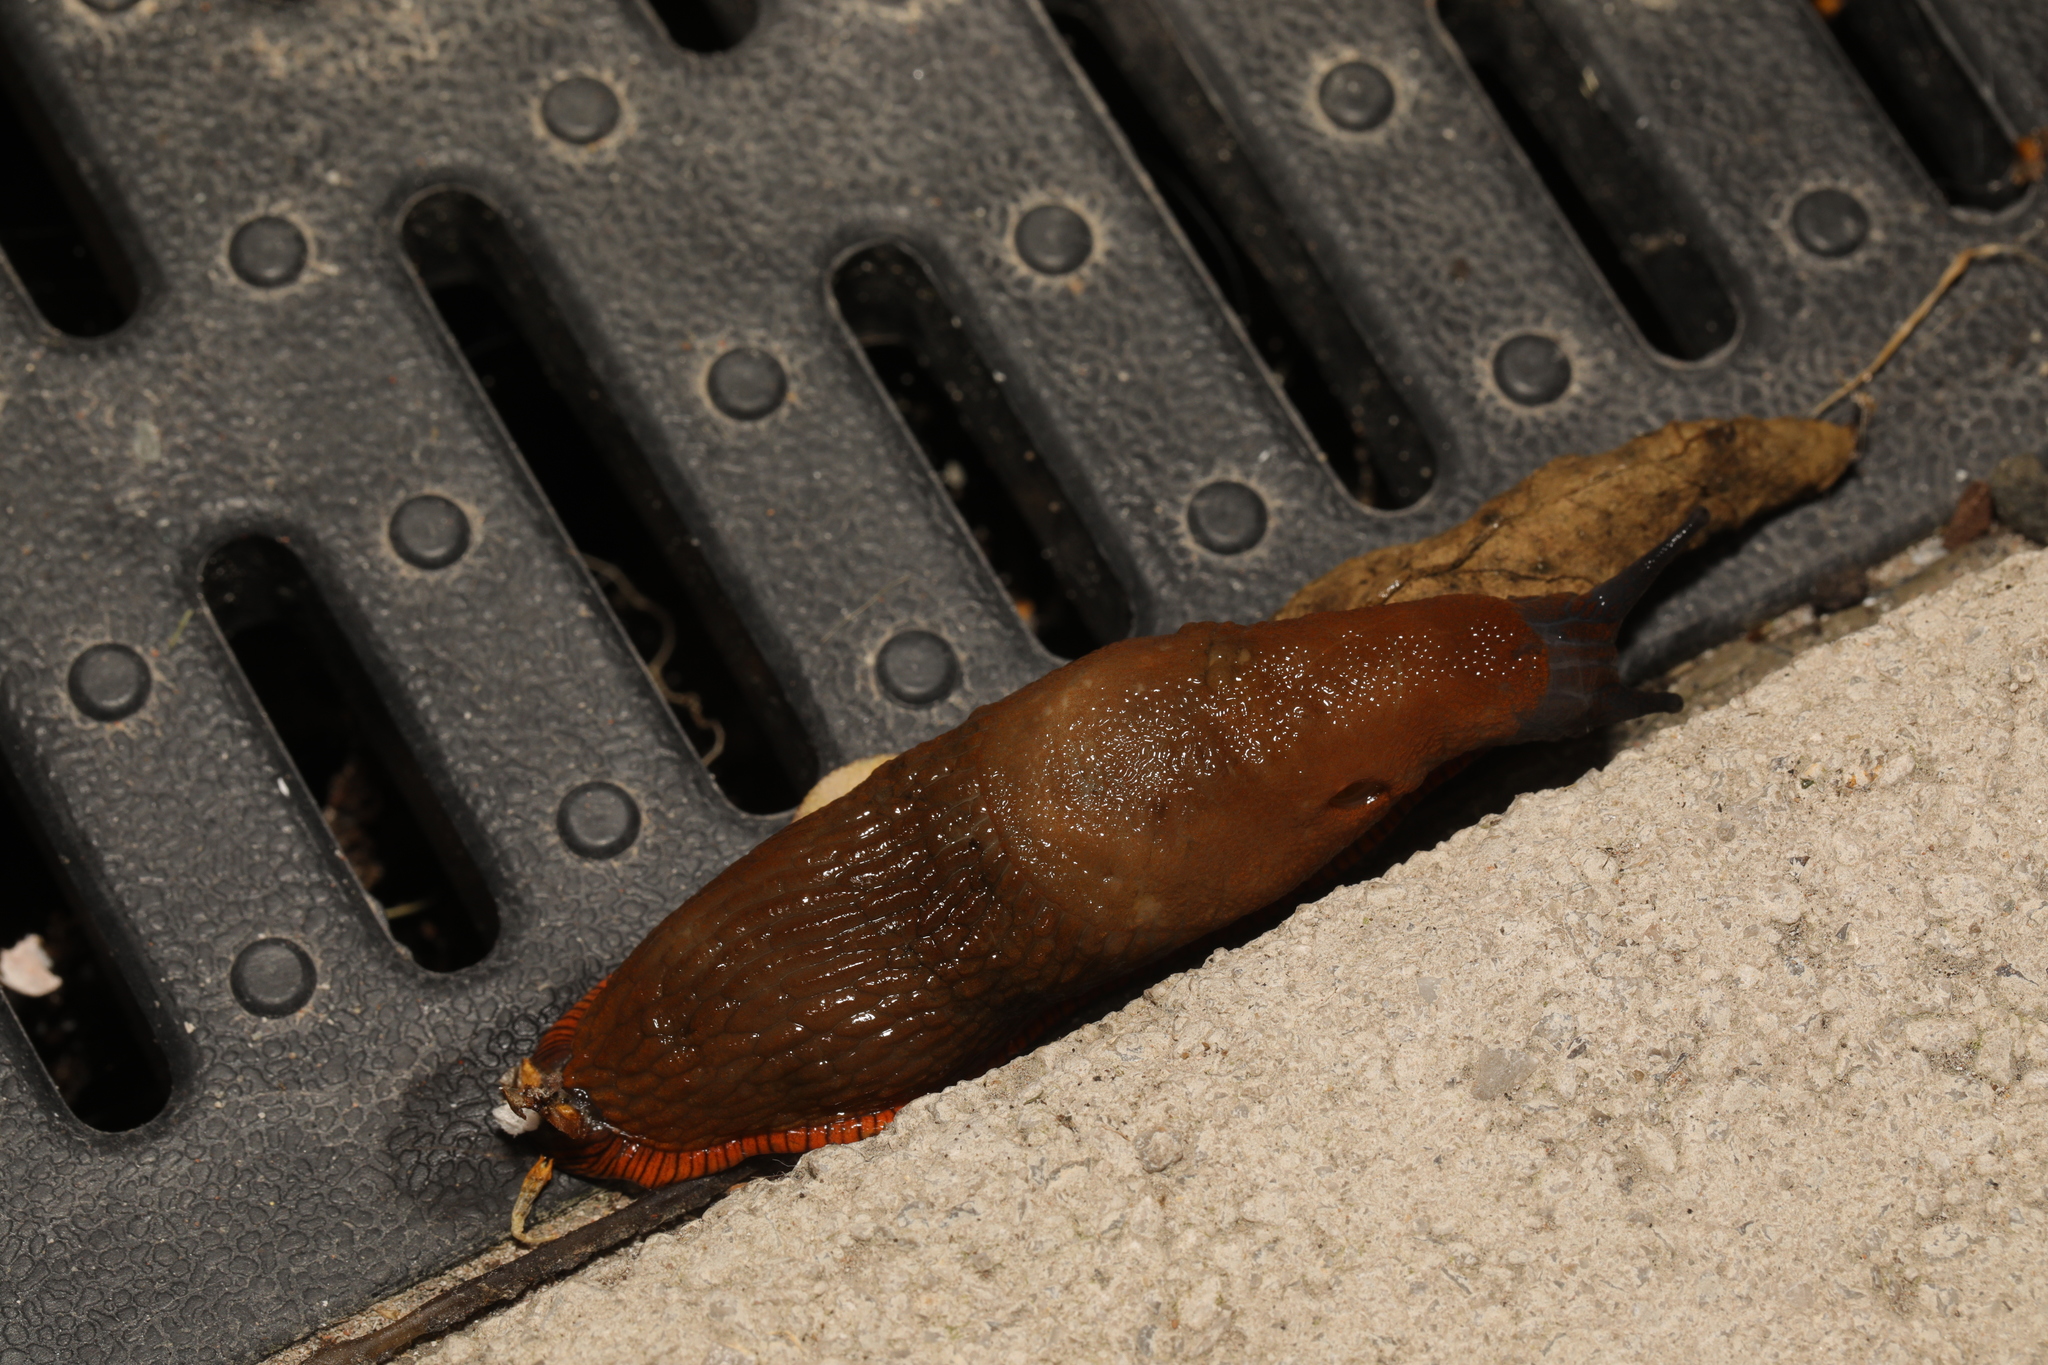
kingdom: Animalia
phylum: Mollusca
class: Gastropoda
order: Stylommatophora
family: Arionidae
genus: Arion
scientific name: Arion
